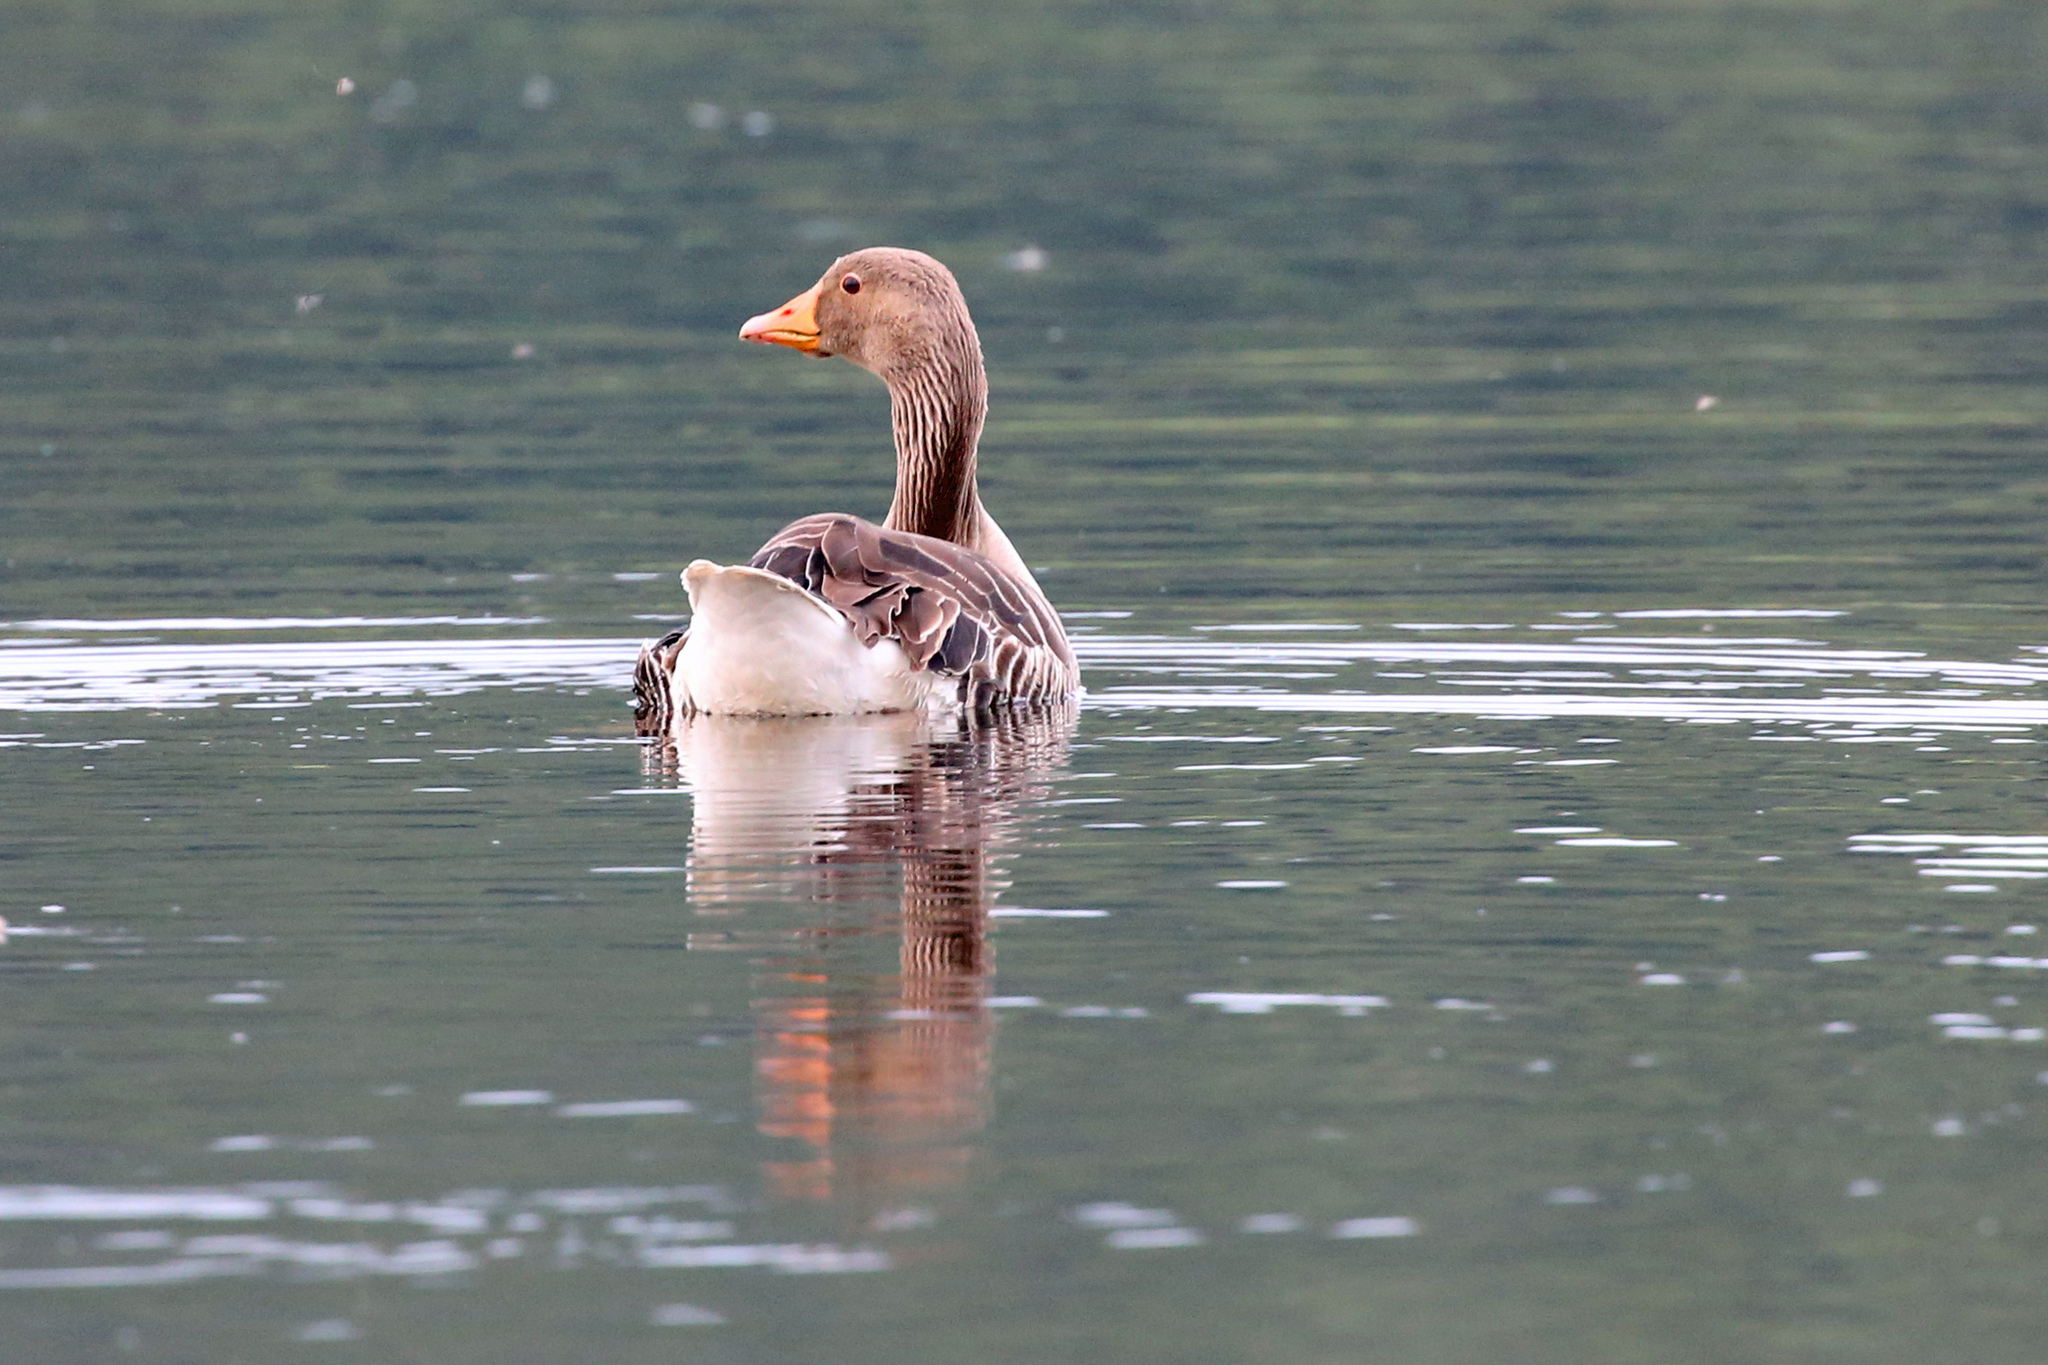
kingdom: Animalia
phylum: Chordata
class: Aves
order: Anseriformes
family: Anatidae
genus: Anser
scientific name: Anser anser
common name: Greylag goose
